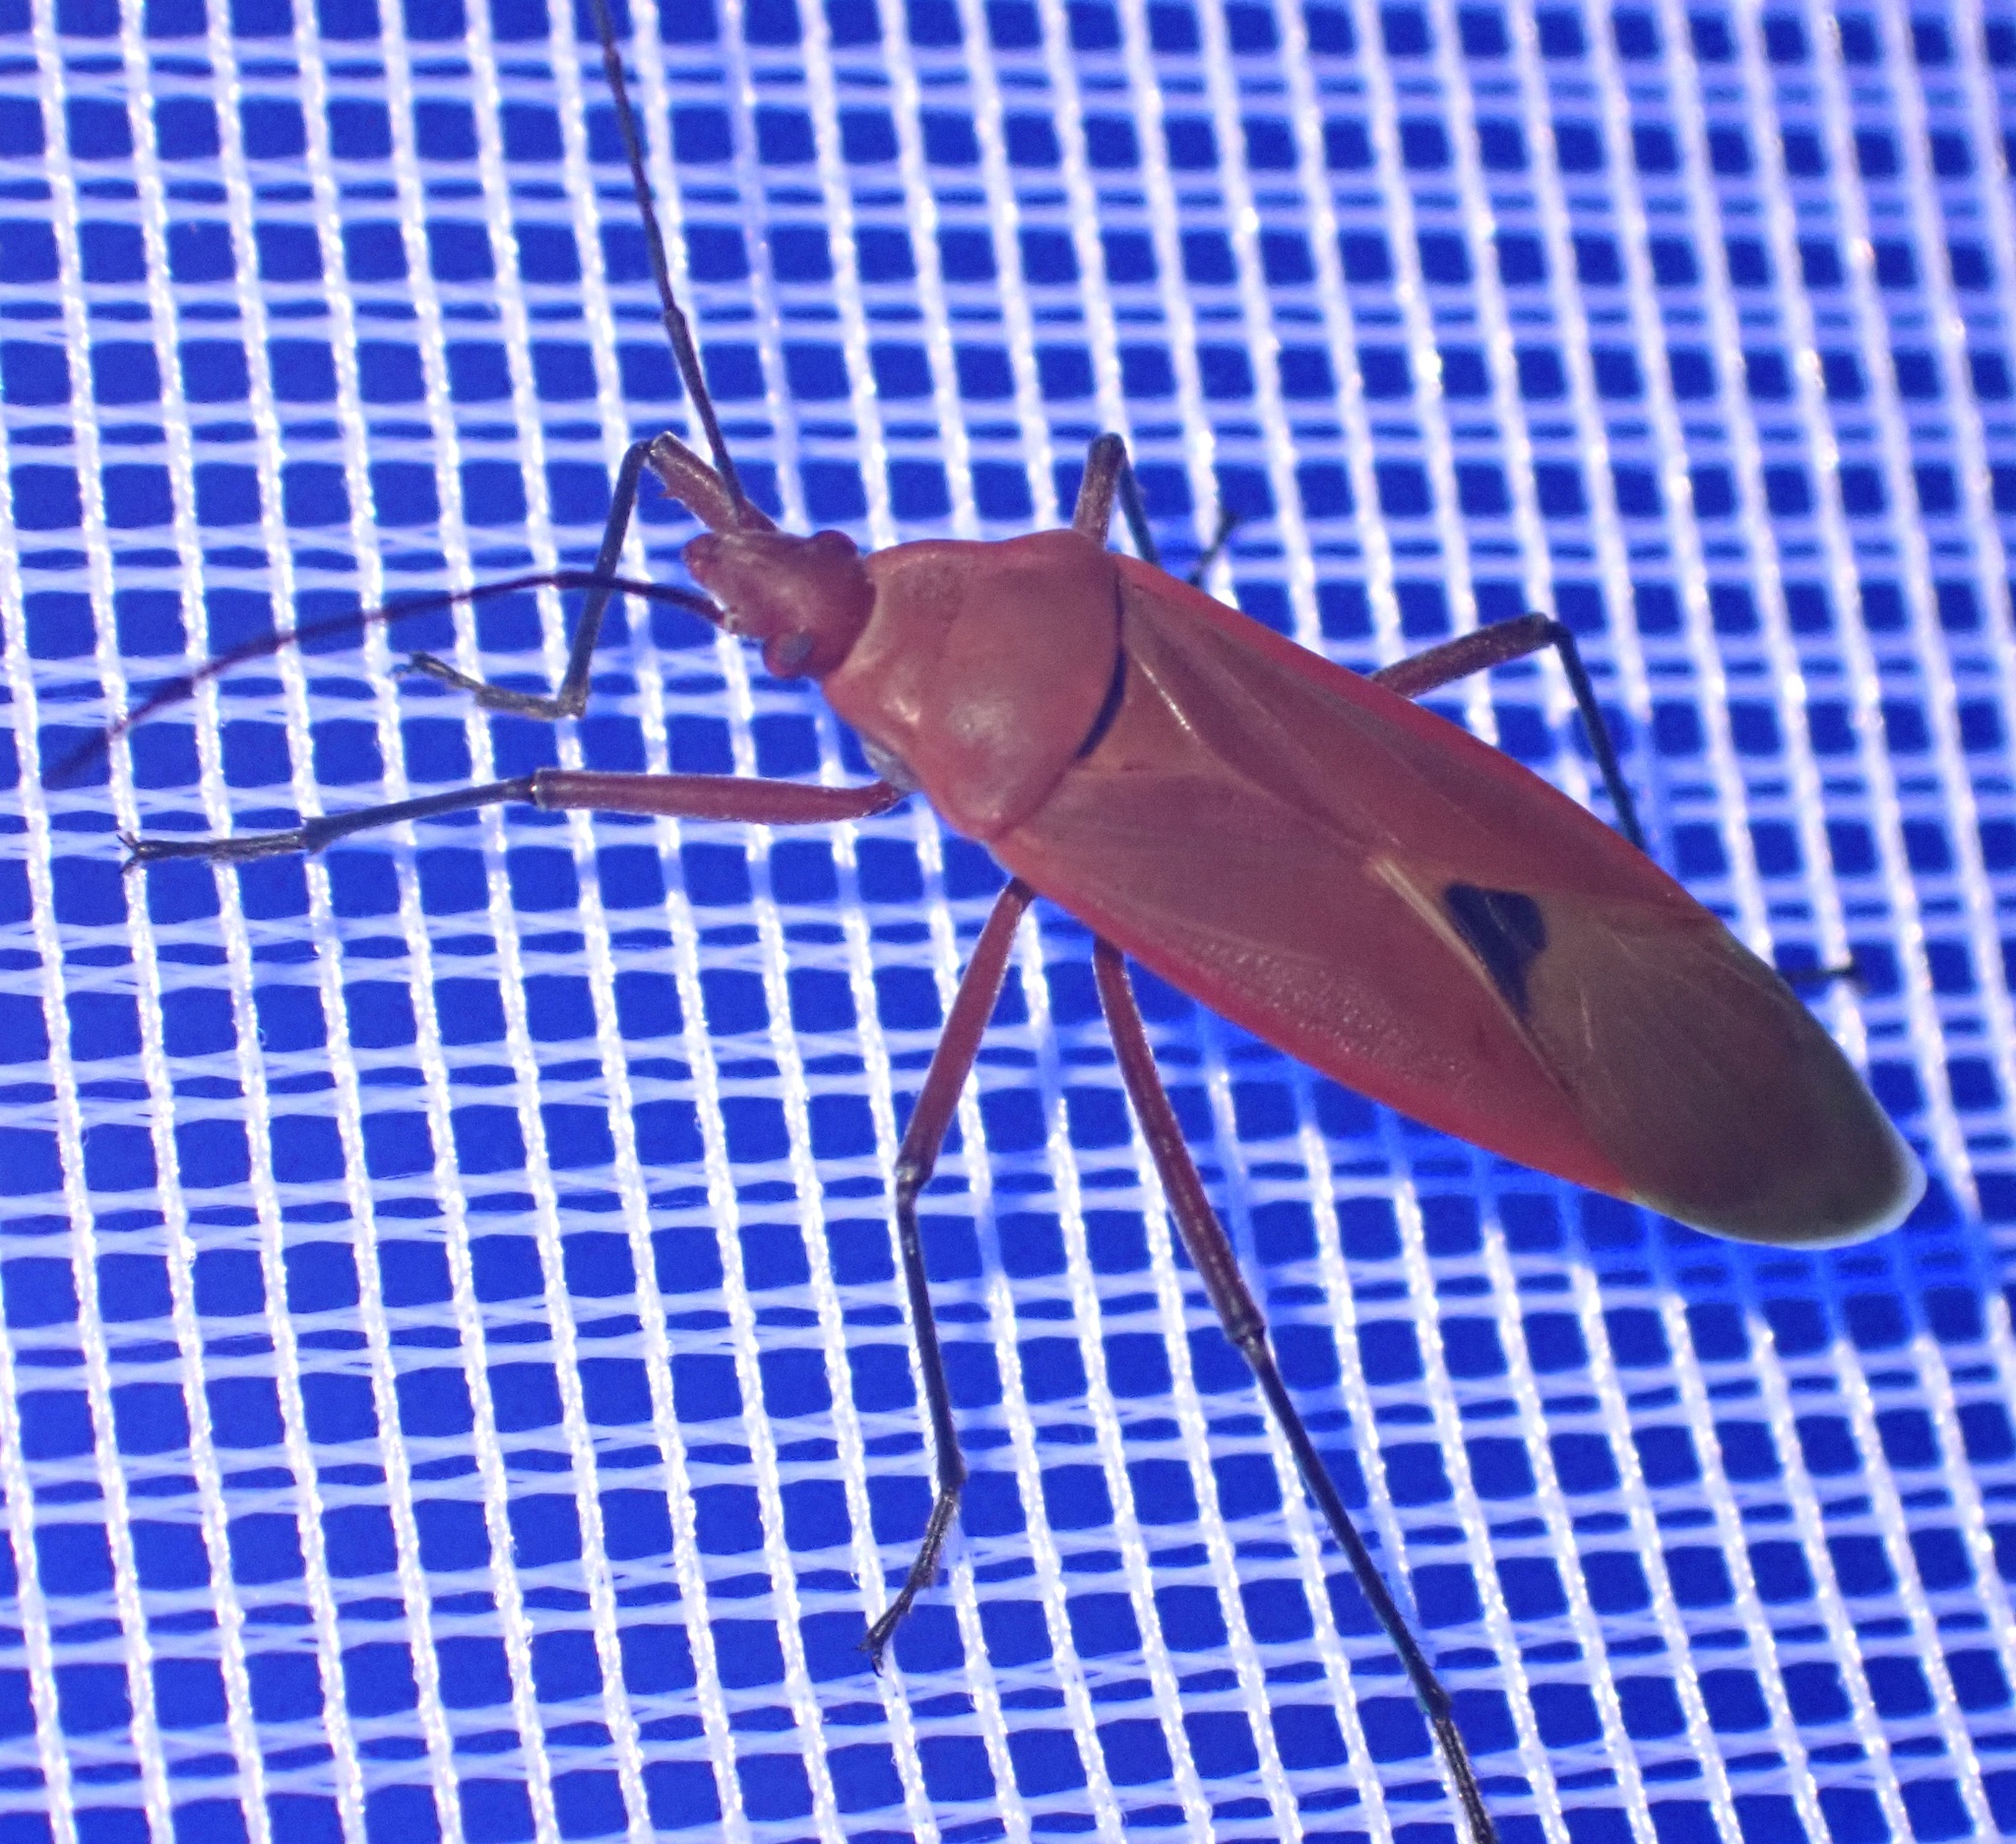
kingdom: Animalia
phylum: Arthropoda
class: Insecta
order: Hemiptera
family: Pyrrhocoridae
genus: Dysdercus
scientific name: Dysdercus fuscomaculatus
